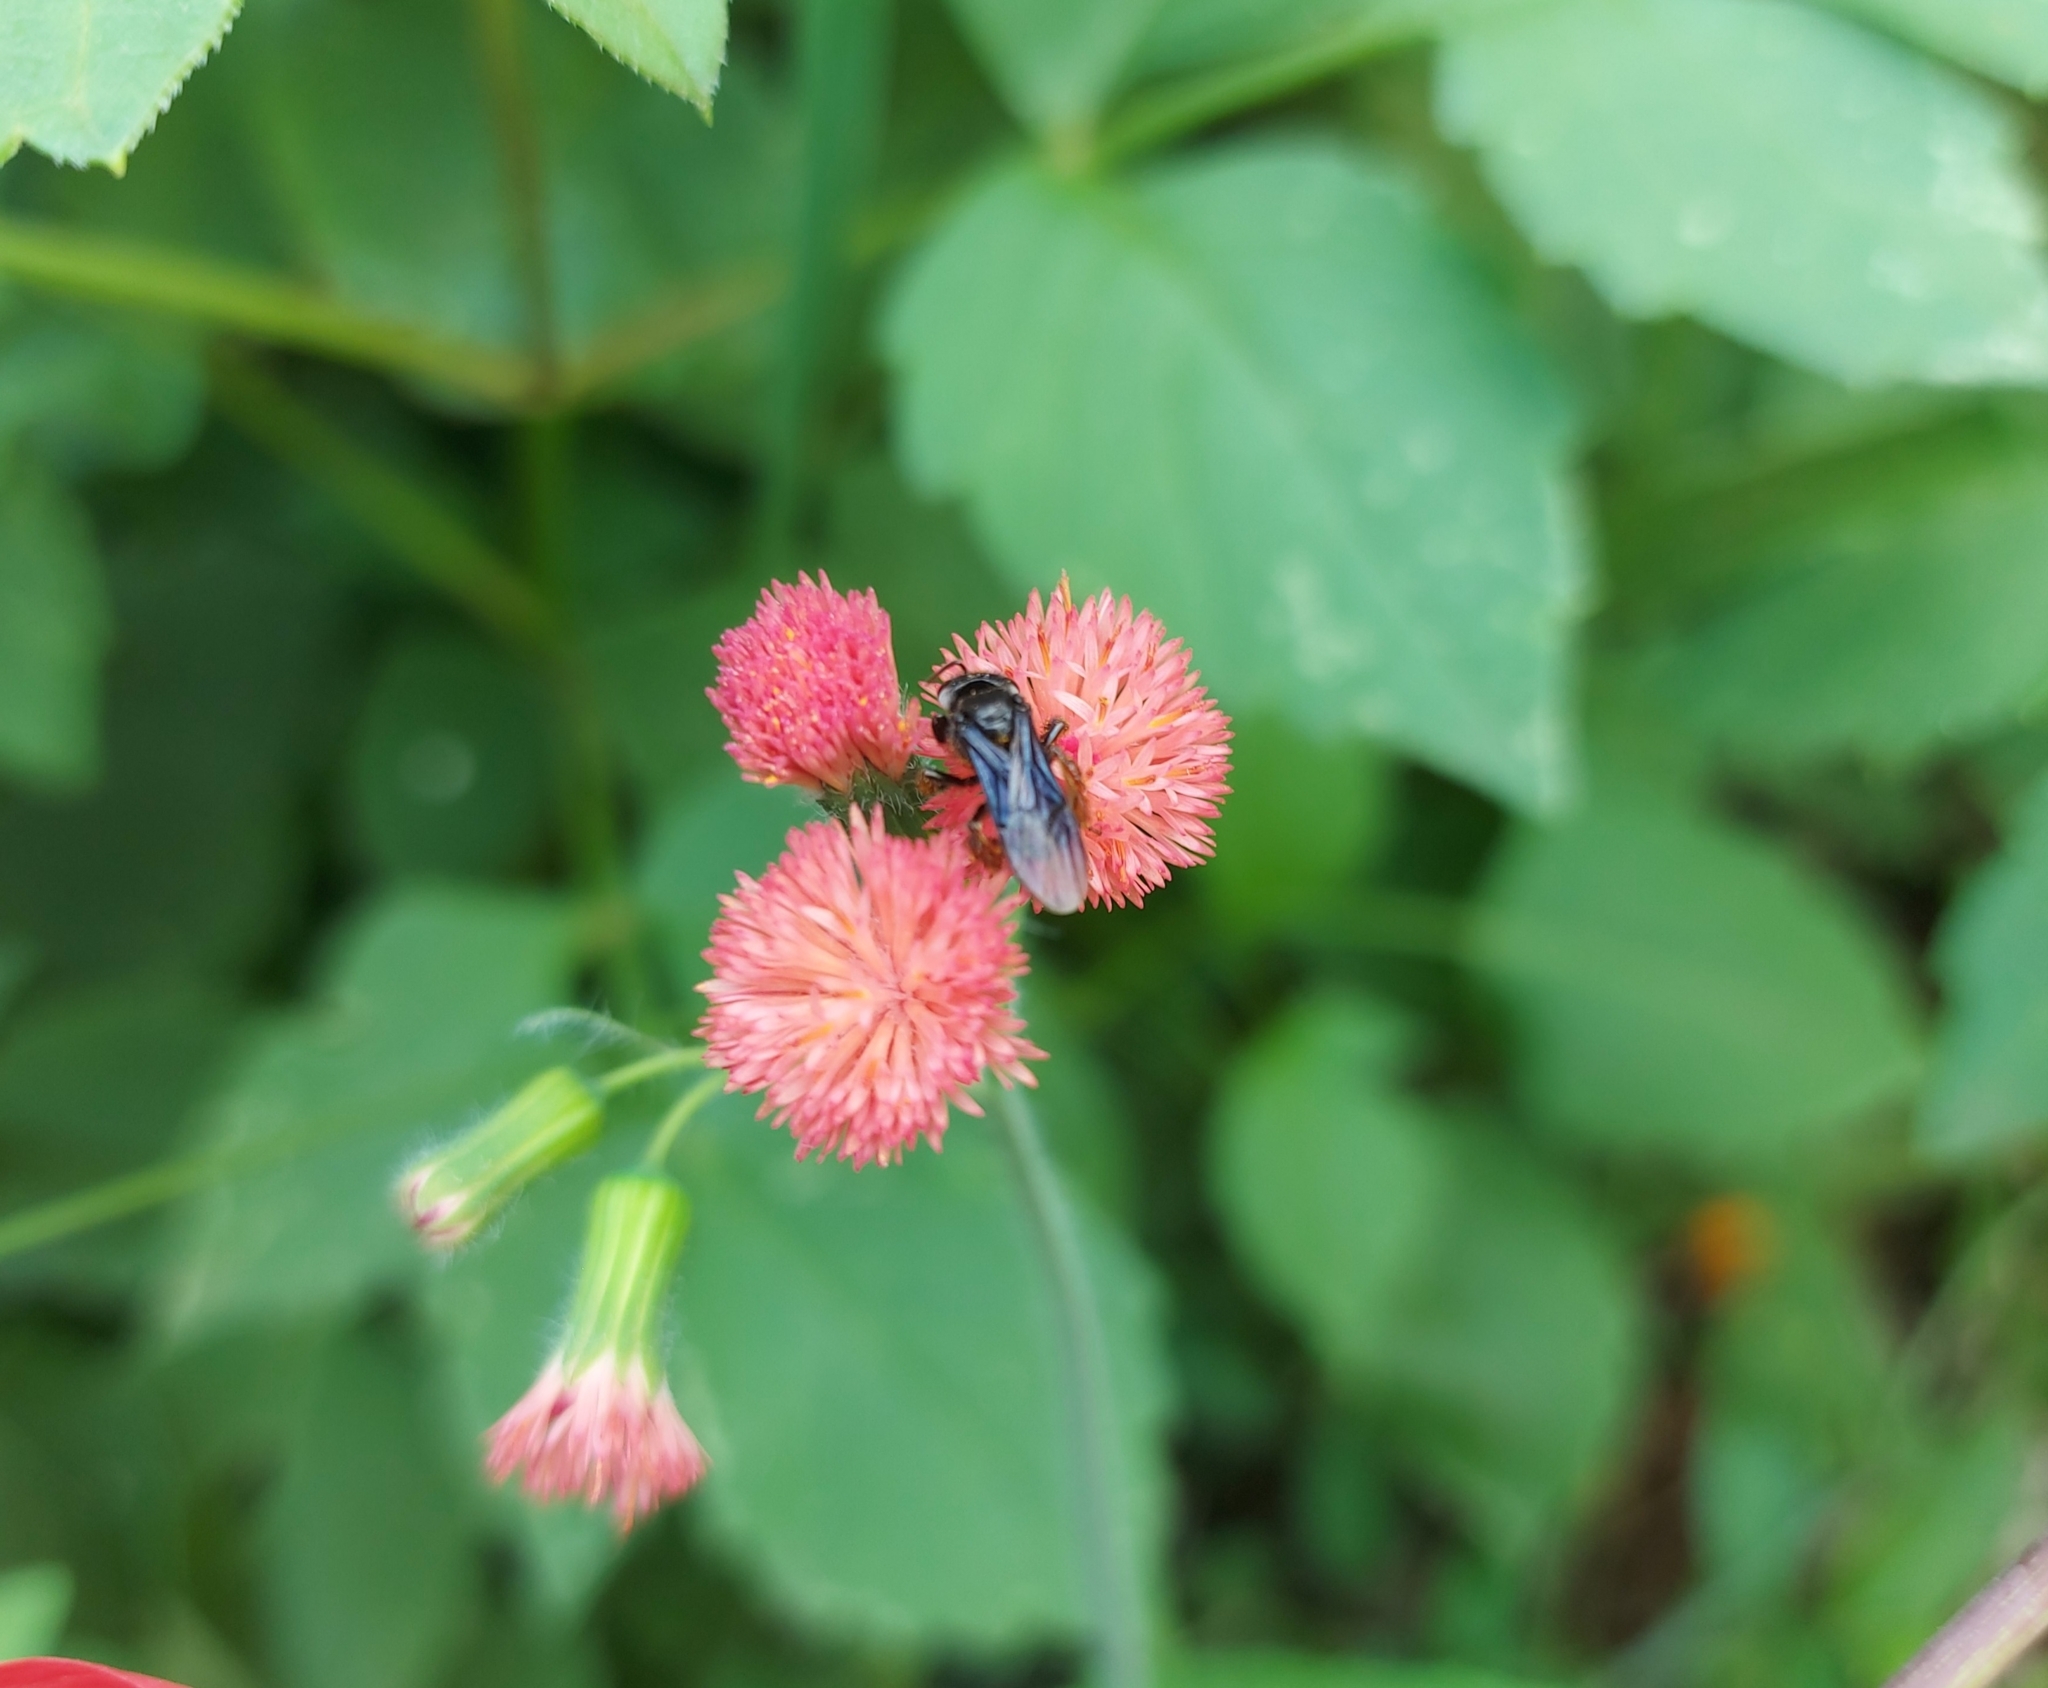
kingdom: Animalia
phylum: Arthropoda
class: Insecta
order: Hymenoptera
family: Apidae
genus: Trigona
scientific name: Trigona spinipes
